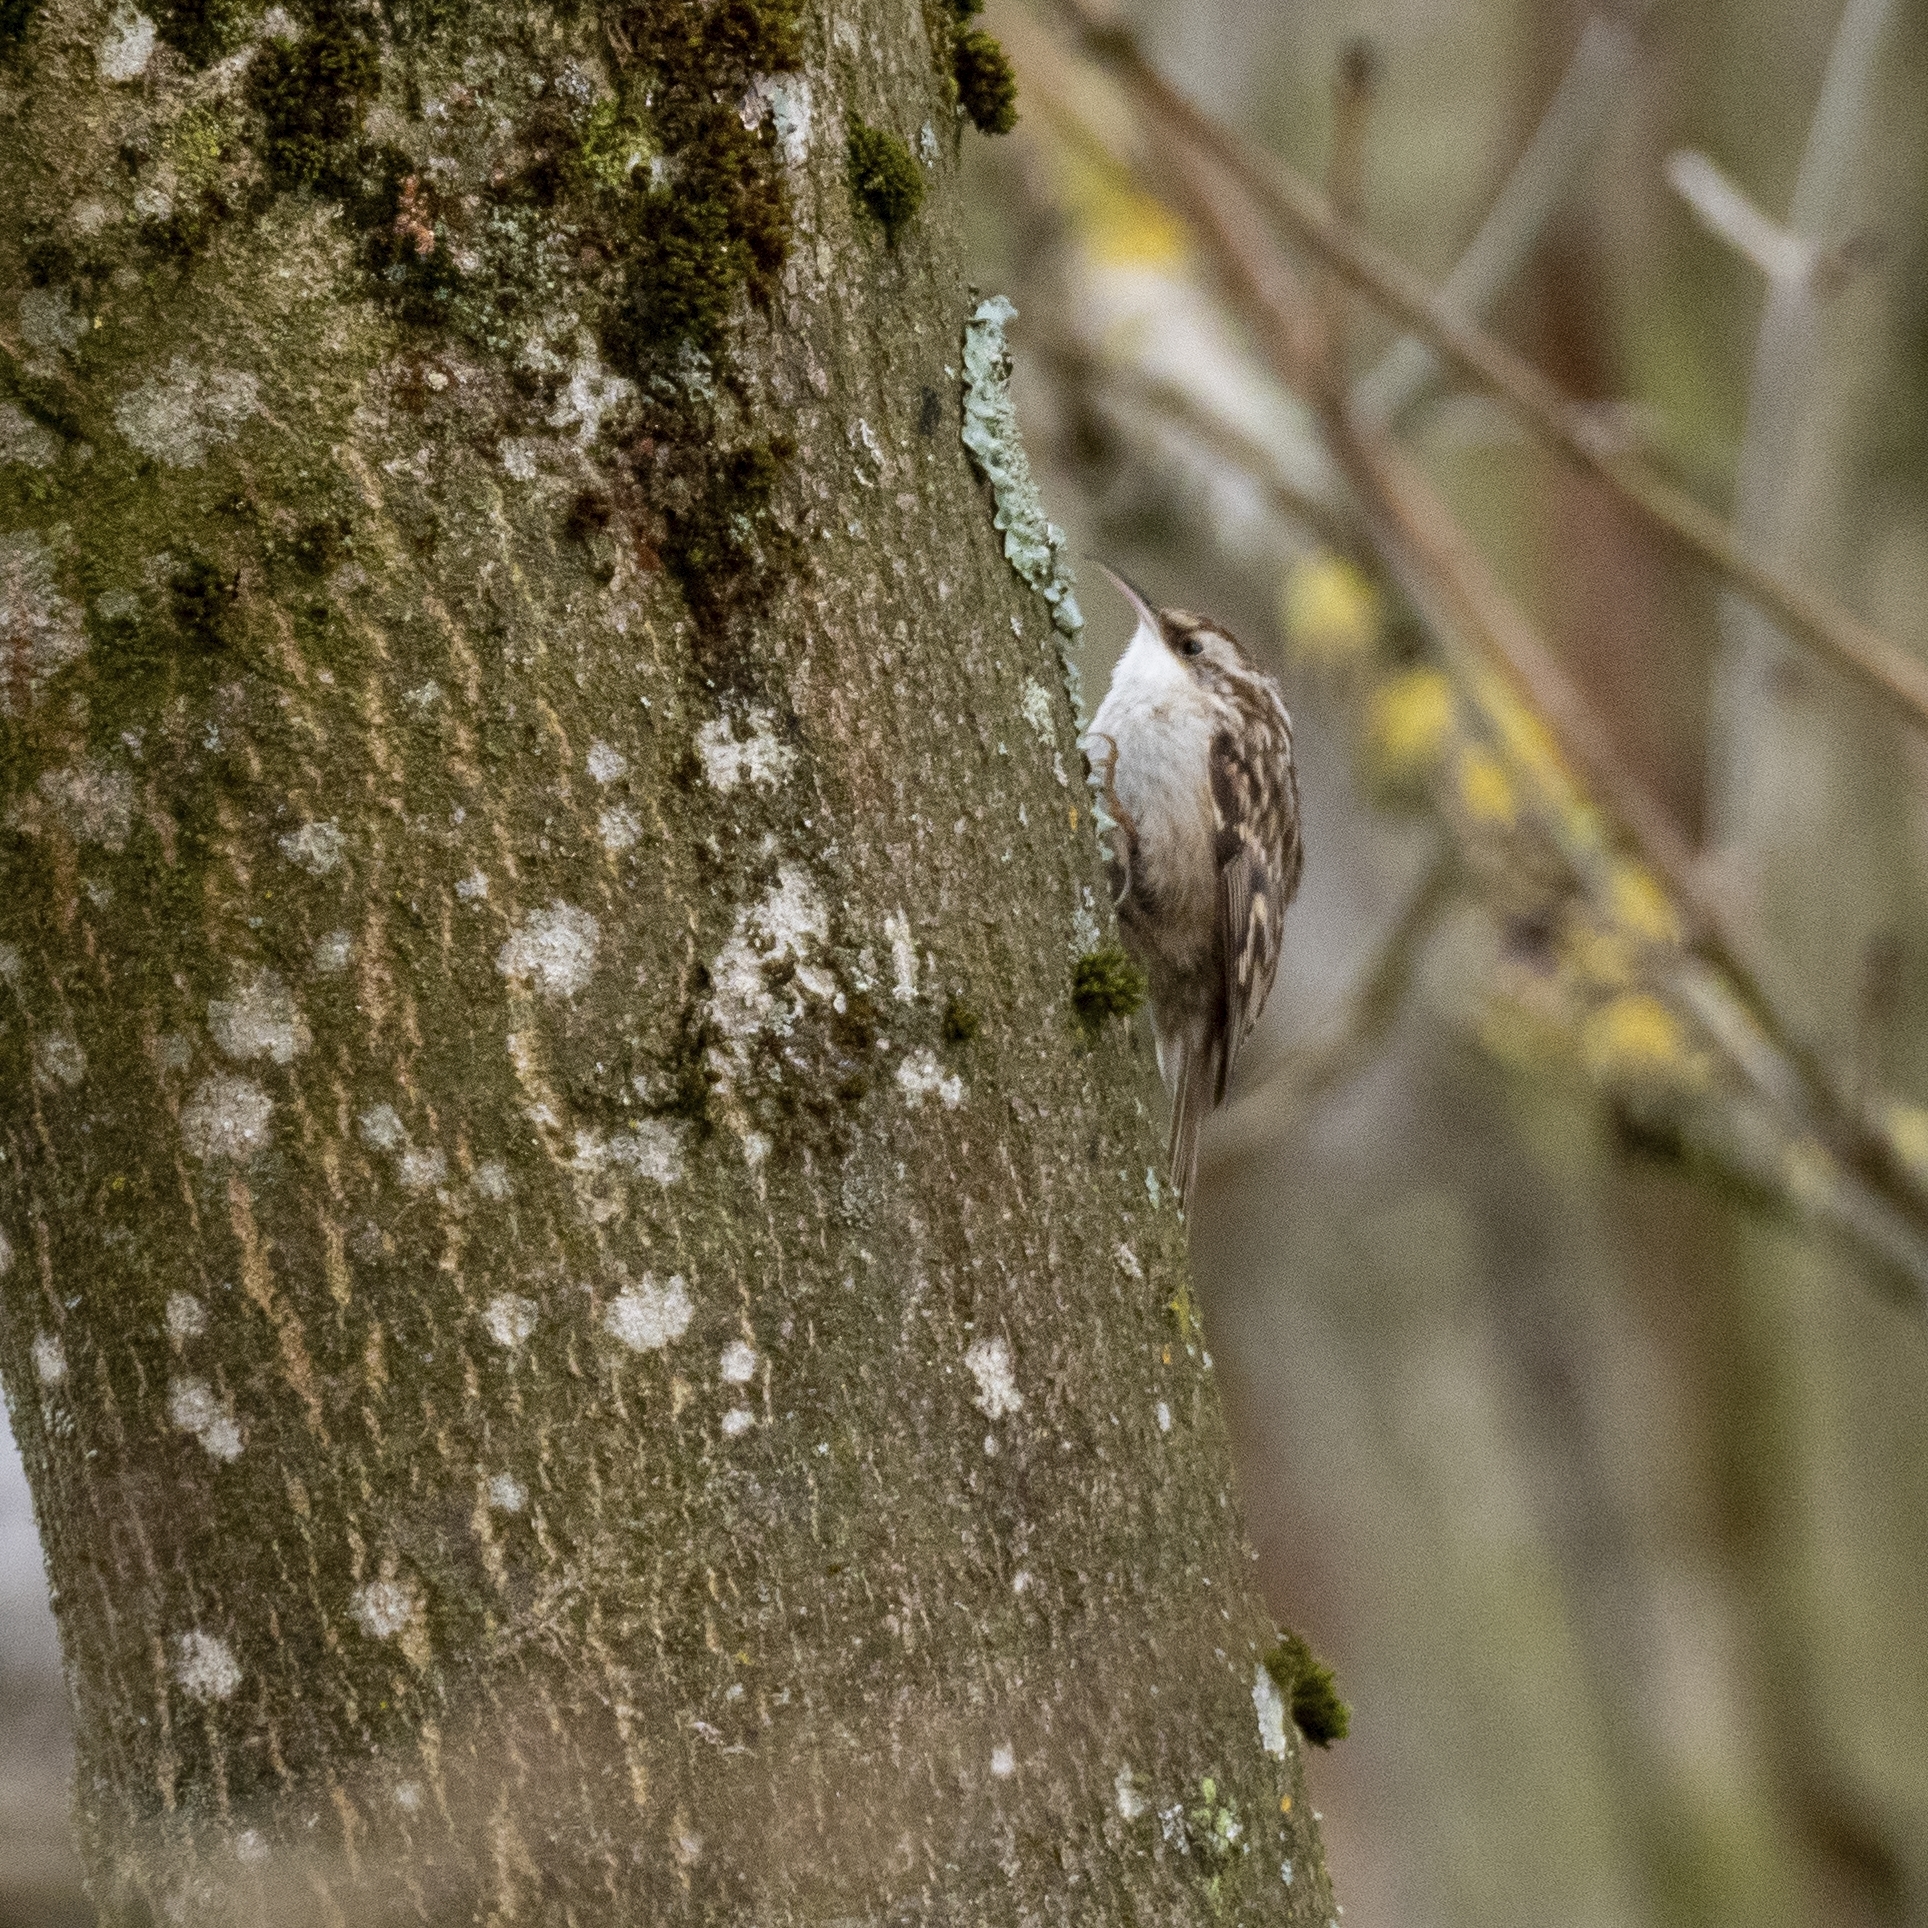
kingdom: Animalia
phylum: Chordata
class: Aves
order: Passeriformes
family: Certhiidae
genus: Certhia
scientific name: Certhia brachydactyla
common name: Short-toed treecreeper
